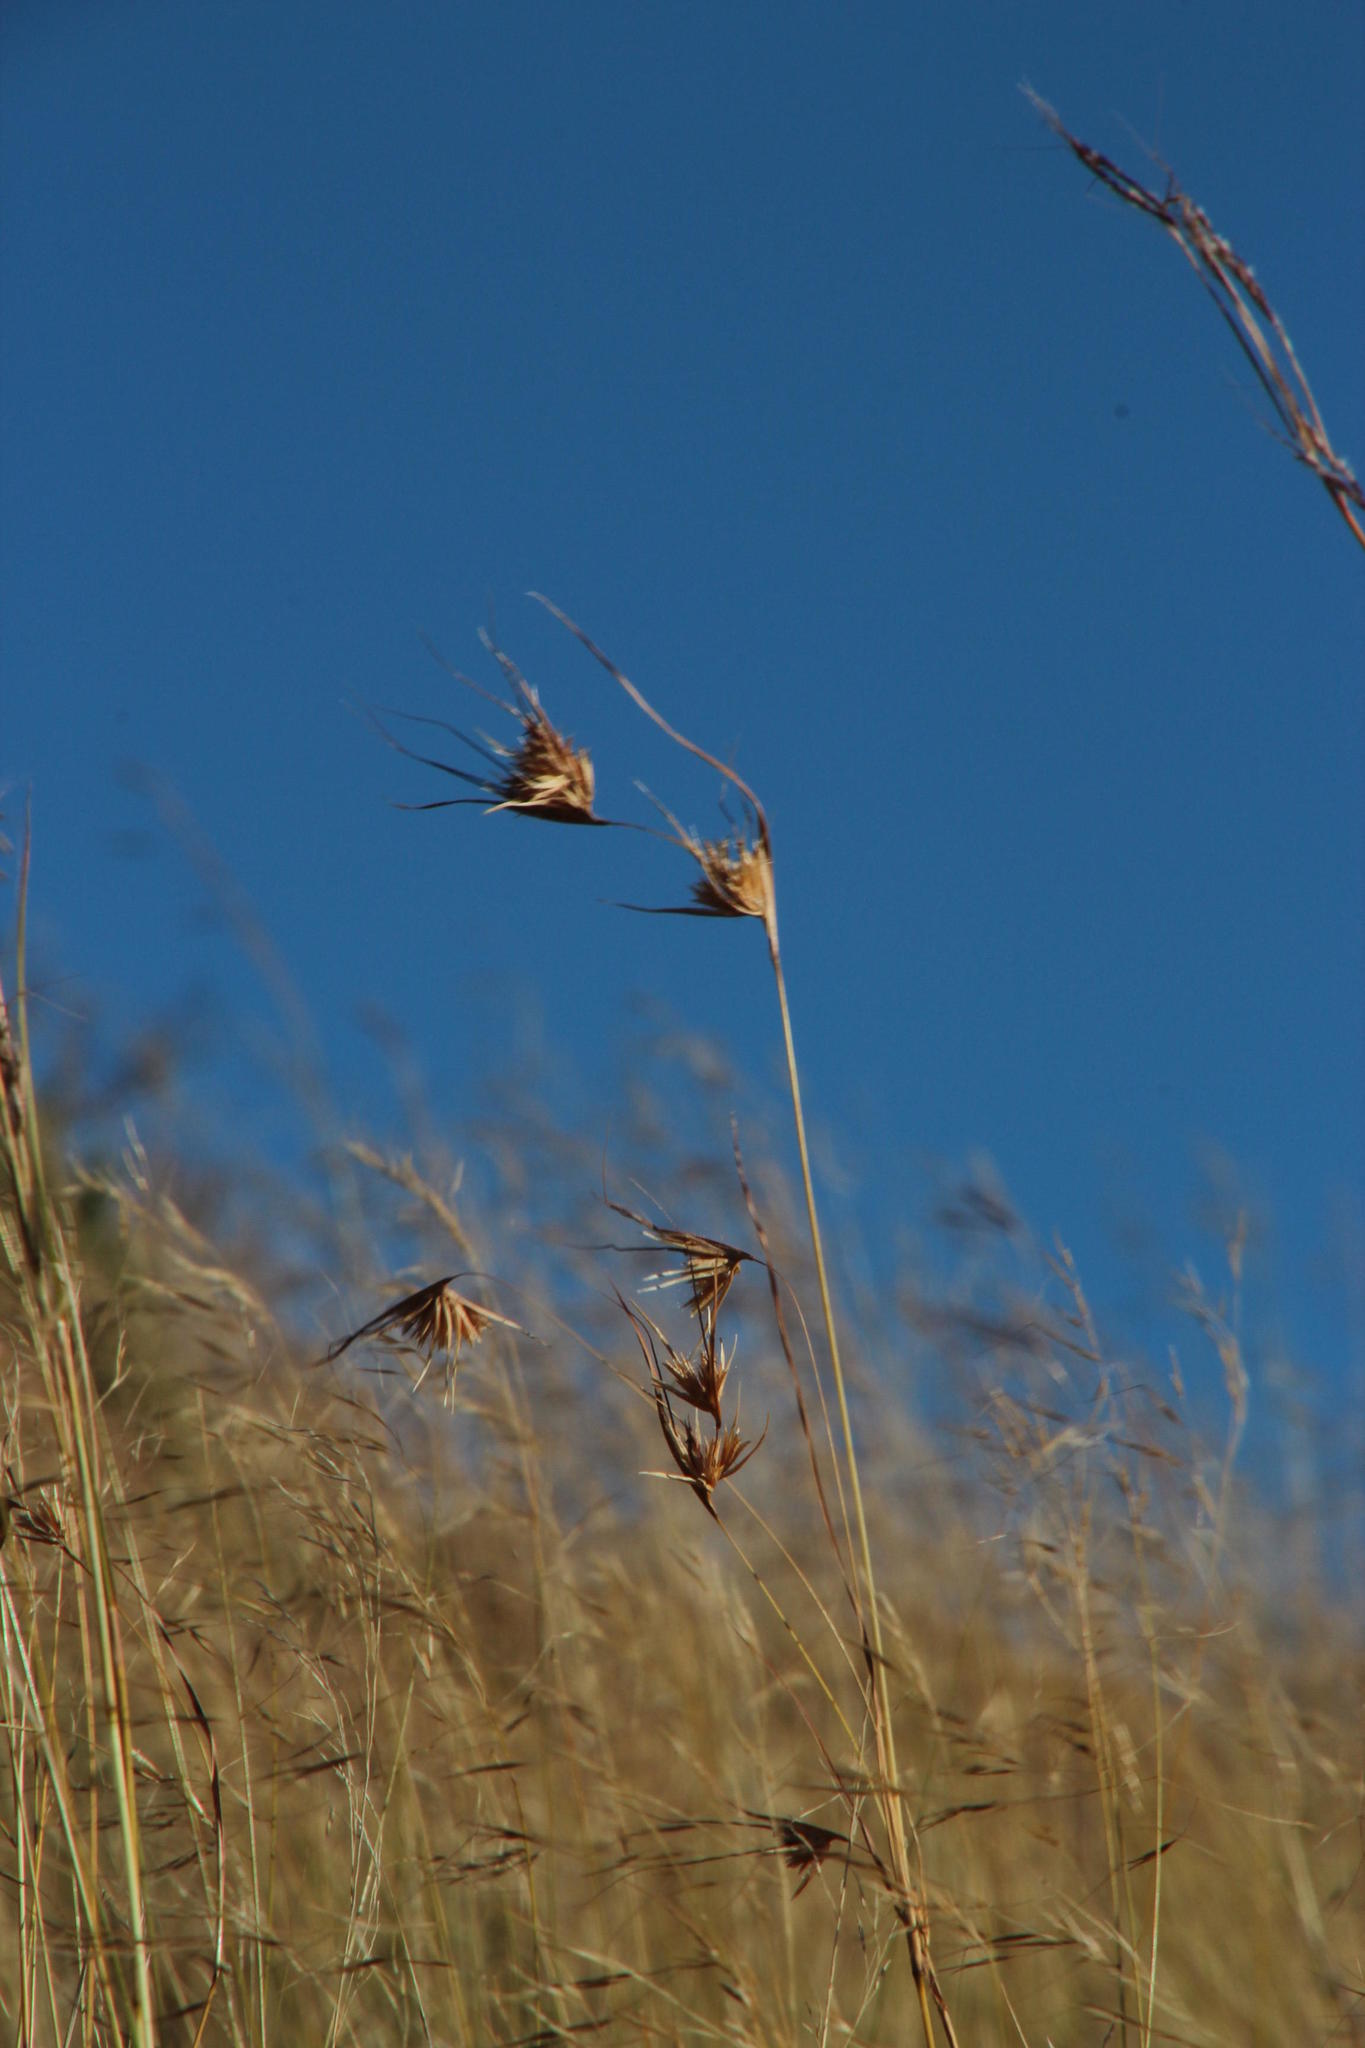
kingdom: Plantae
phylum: Tracheophyta
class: Liliopsida
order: Poales
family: Poaceae
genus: Themeda
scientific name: Themeda triandra
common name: Kangaroo grass
